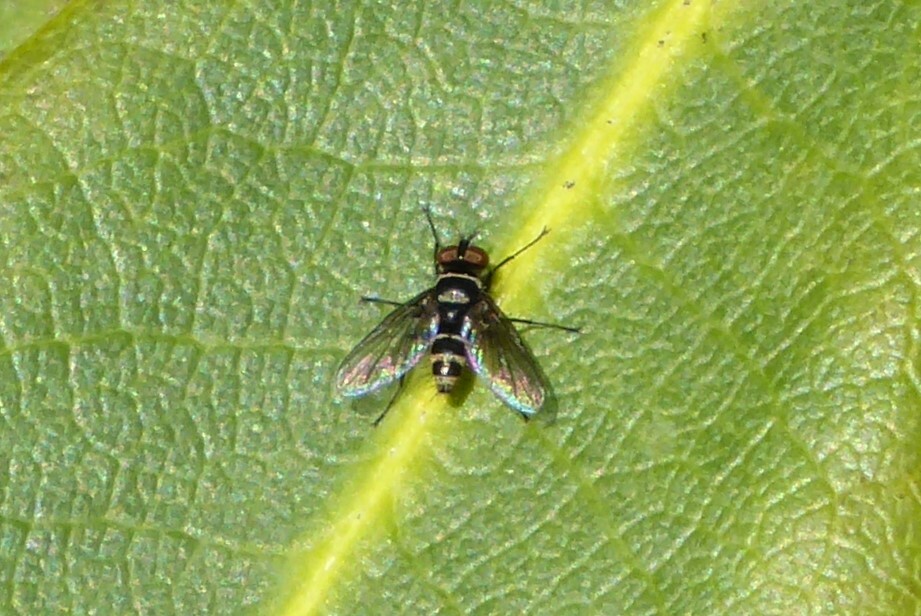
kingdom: Animalia
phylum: Arthropoda
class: Insecta
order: Diptera
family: Tachinidae
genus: Trigonospila
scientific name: Trigonospila brevifacies
